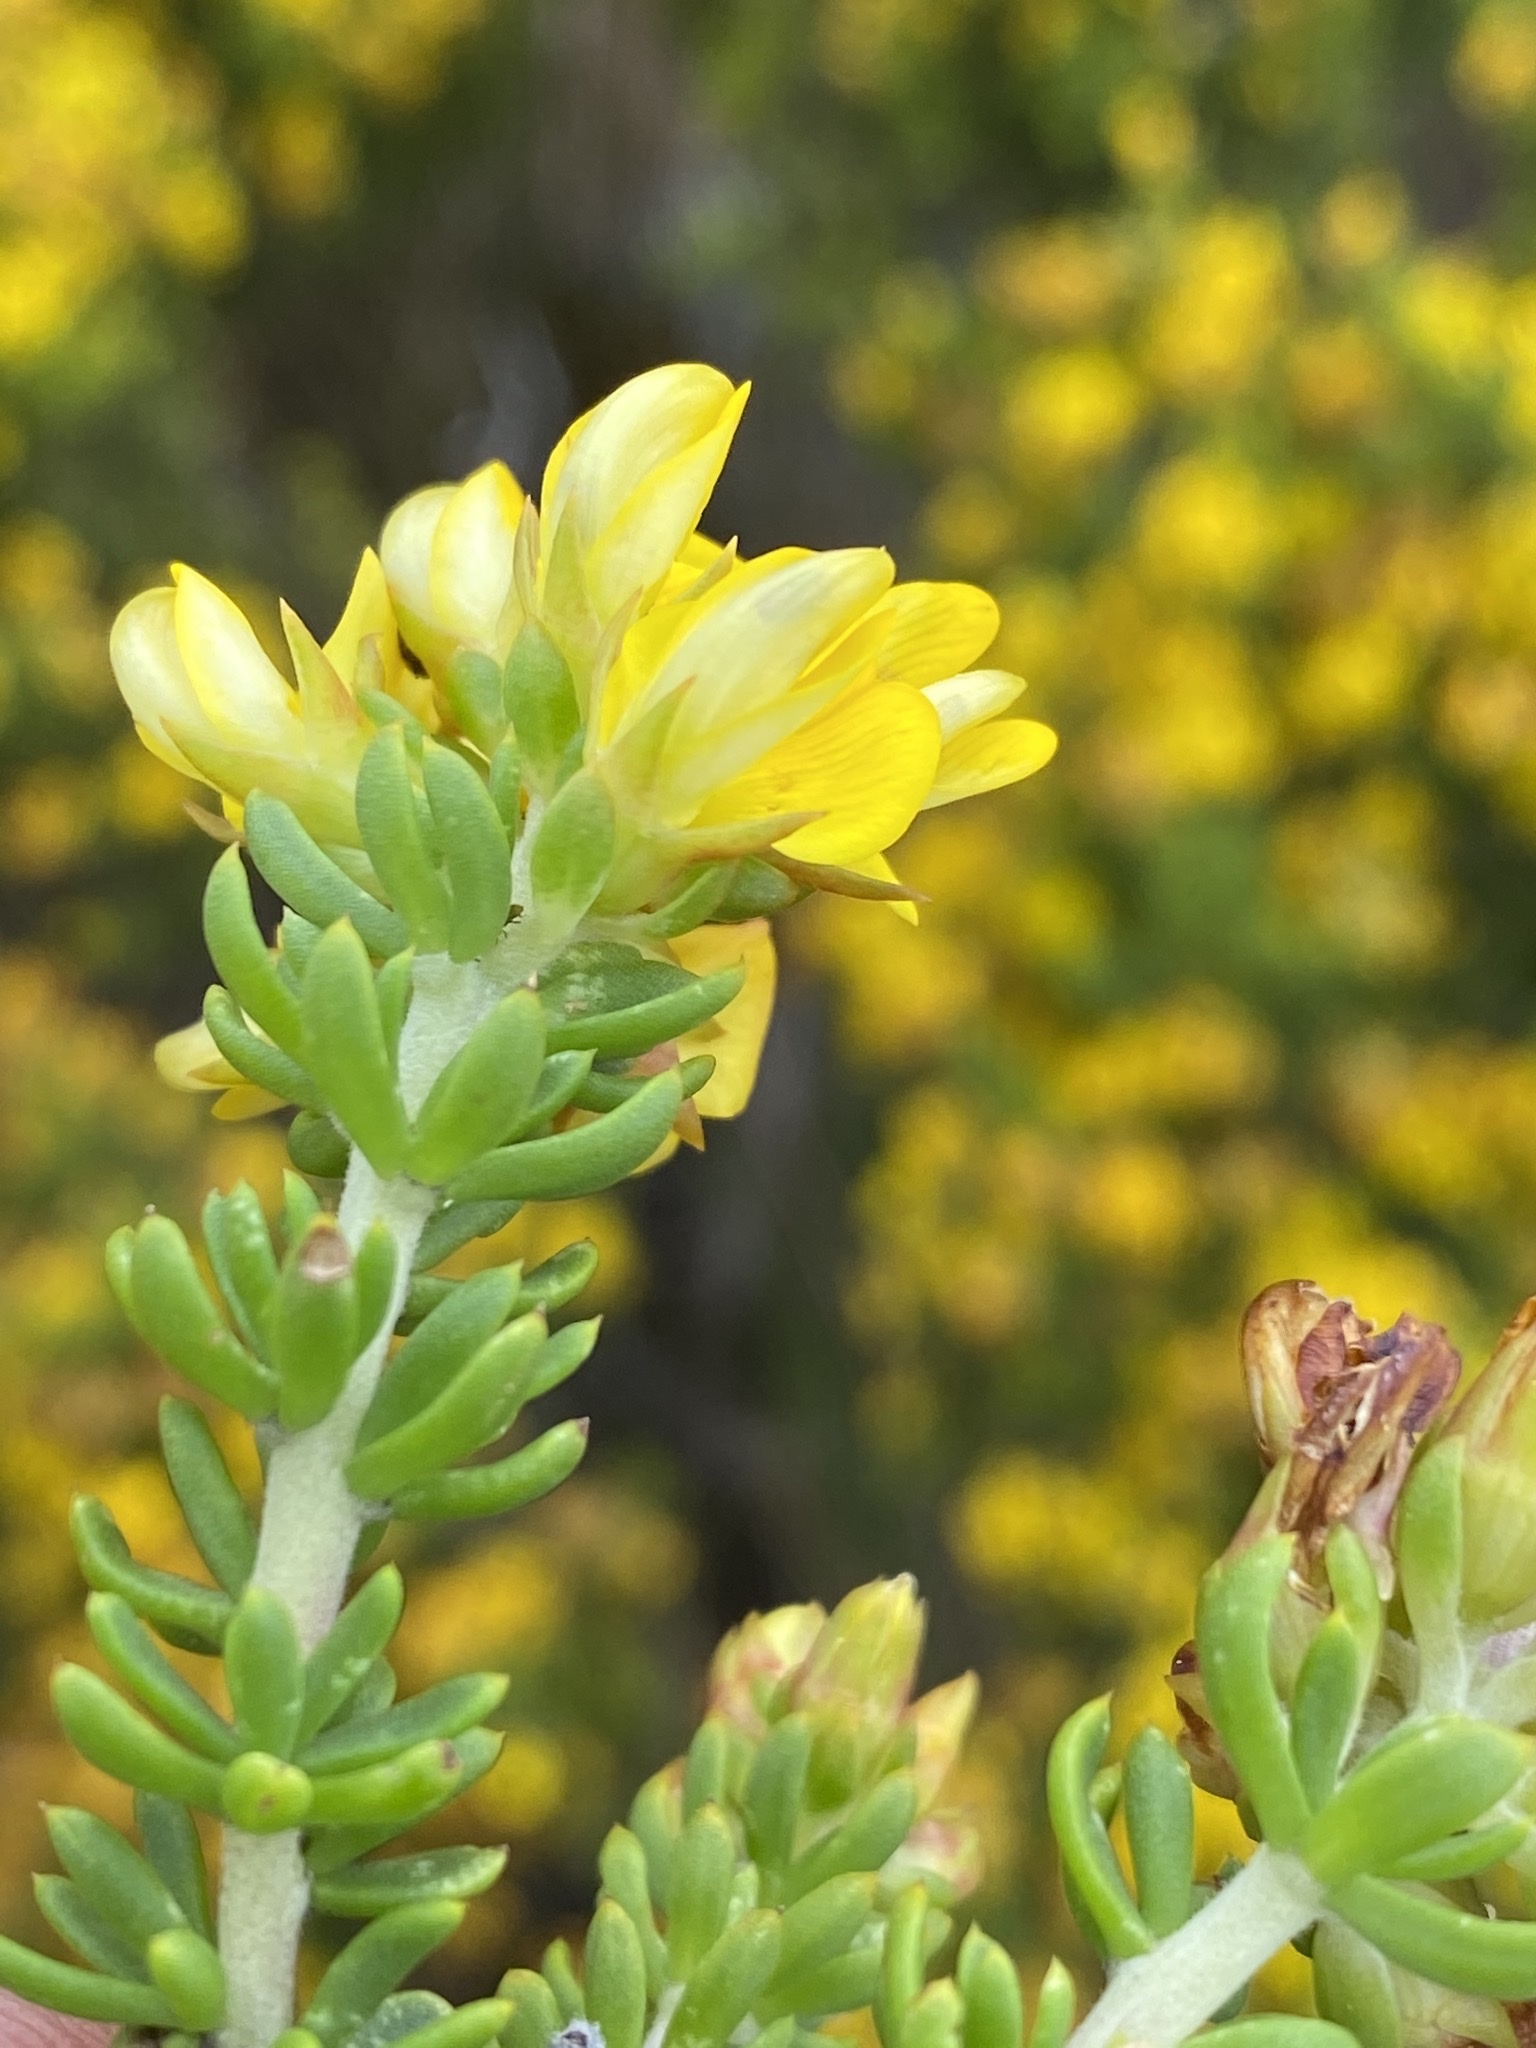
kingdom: Plantae
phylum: Tracheophyta
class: Magnoliopsida
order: Fabales
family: Fabaceae
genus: Aspalathus
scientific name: Aspalathus fusca
